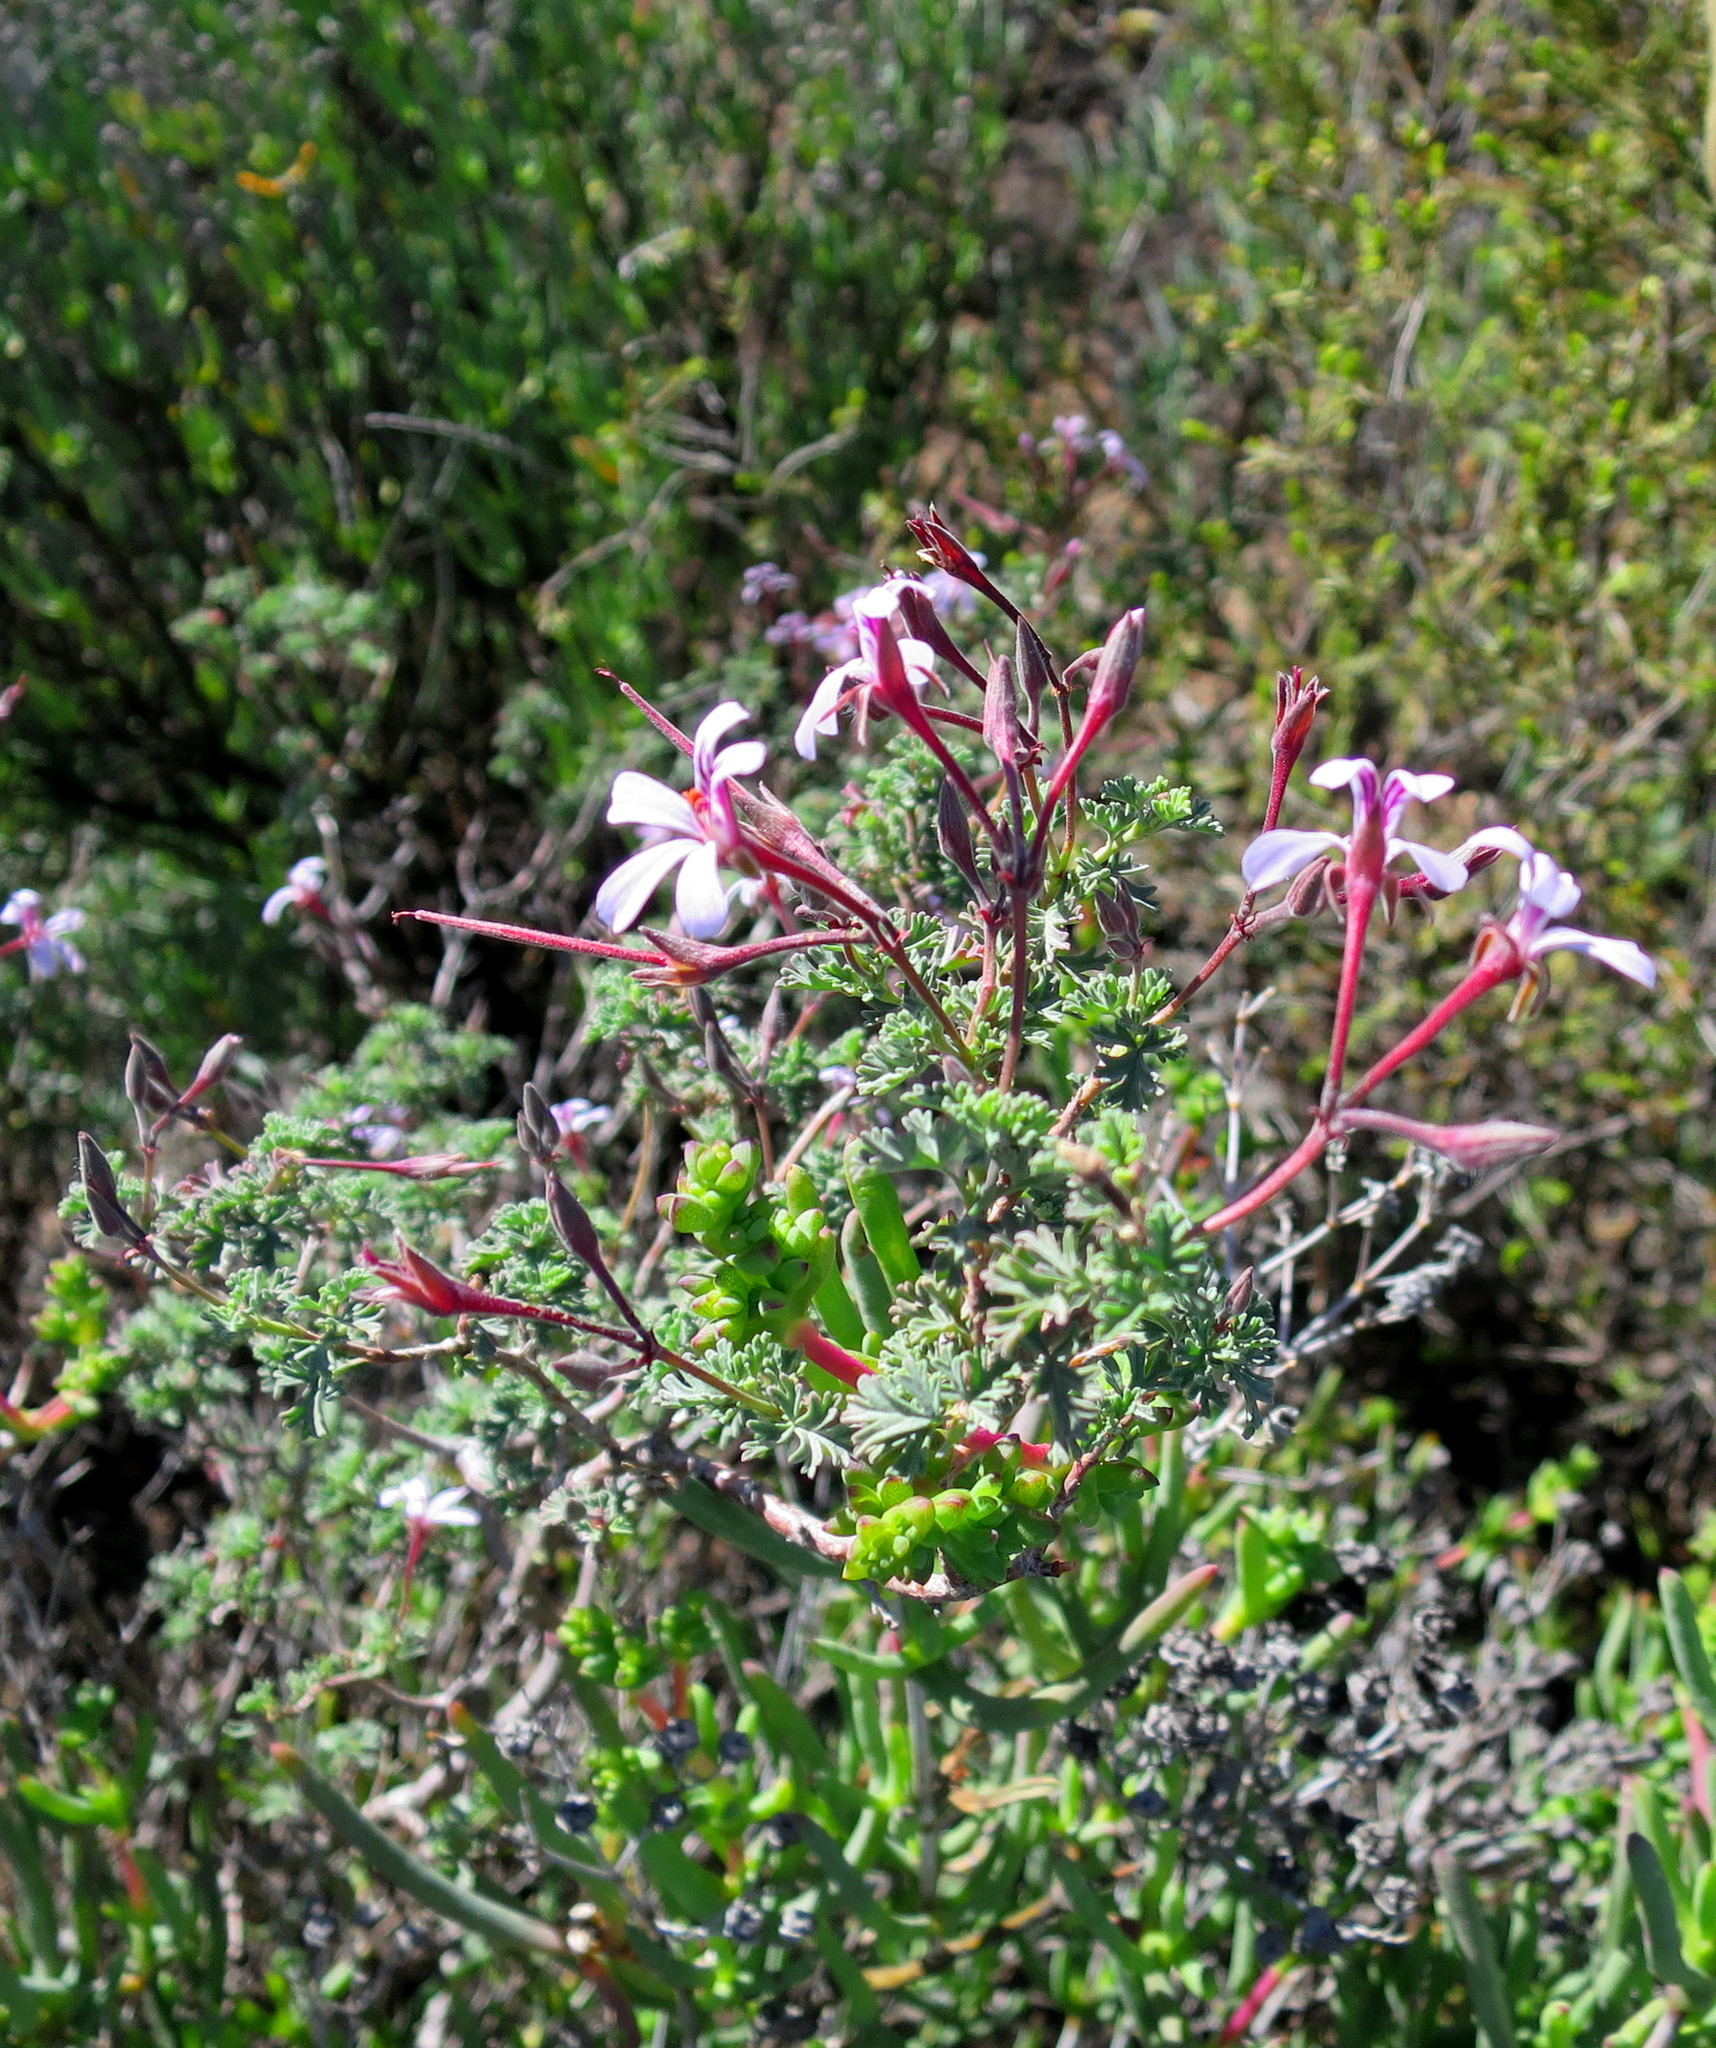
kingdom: Plantae
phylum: Tracheophyta
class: Magnoliopsida
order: Geraniales
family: Geraniaceae
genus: Pelargonium
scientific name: Pelargonium exstipulatum
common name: Soft-leaf trifid pelargonium
